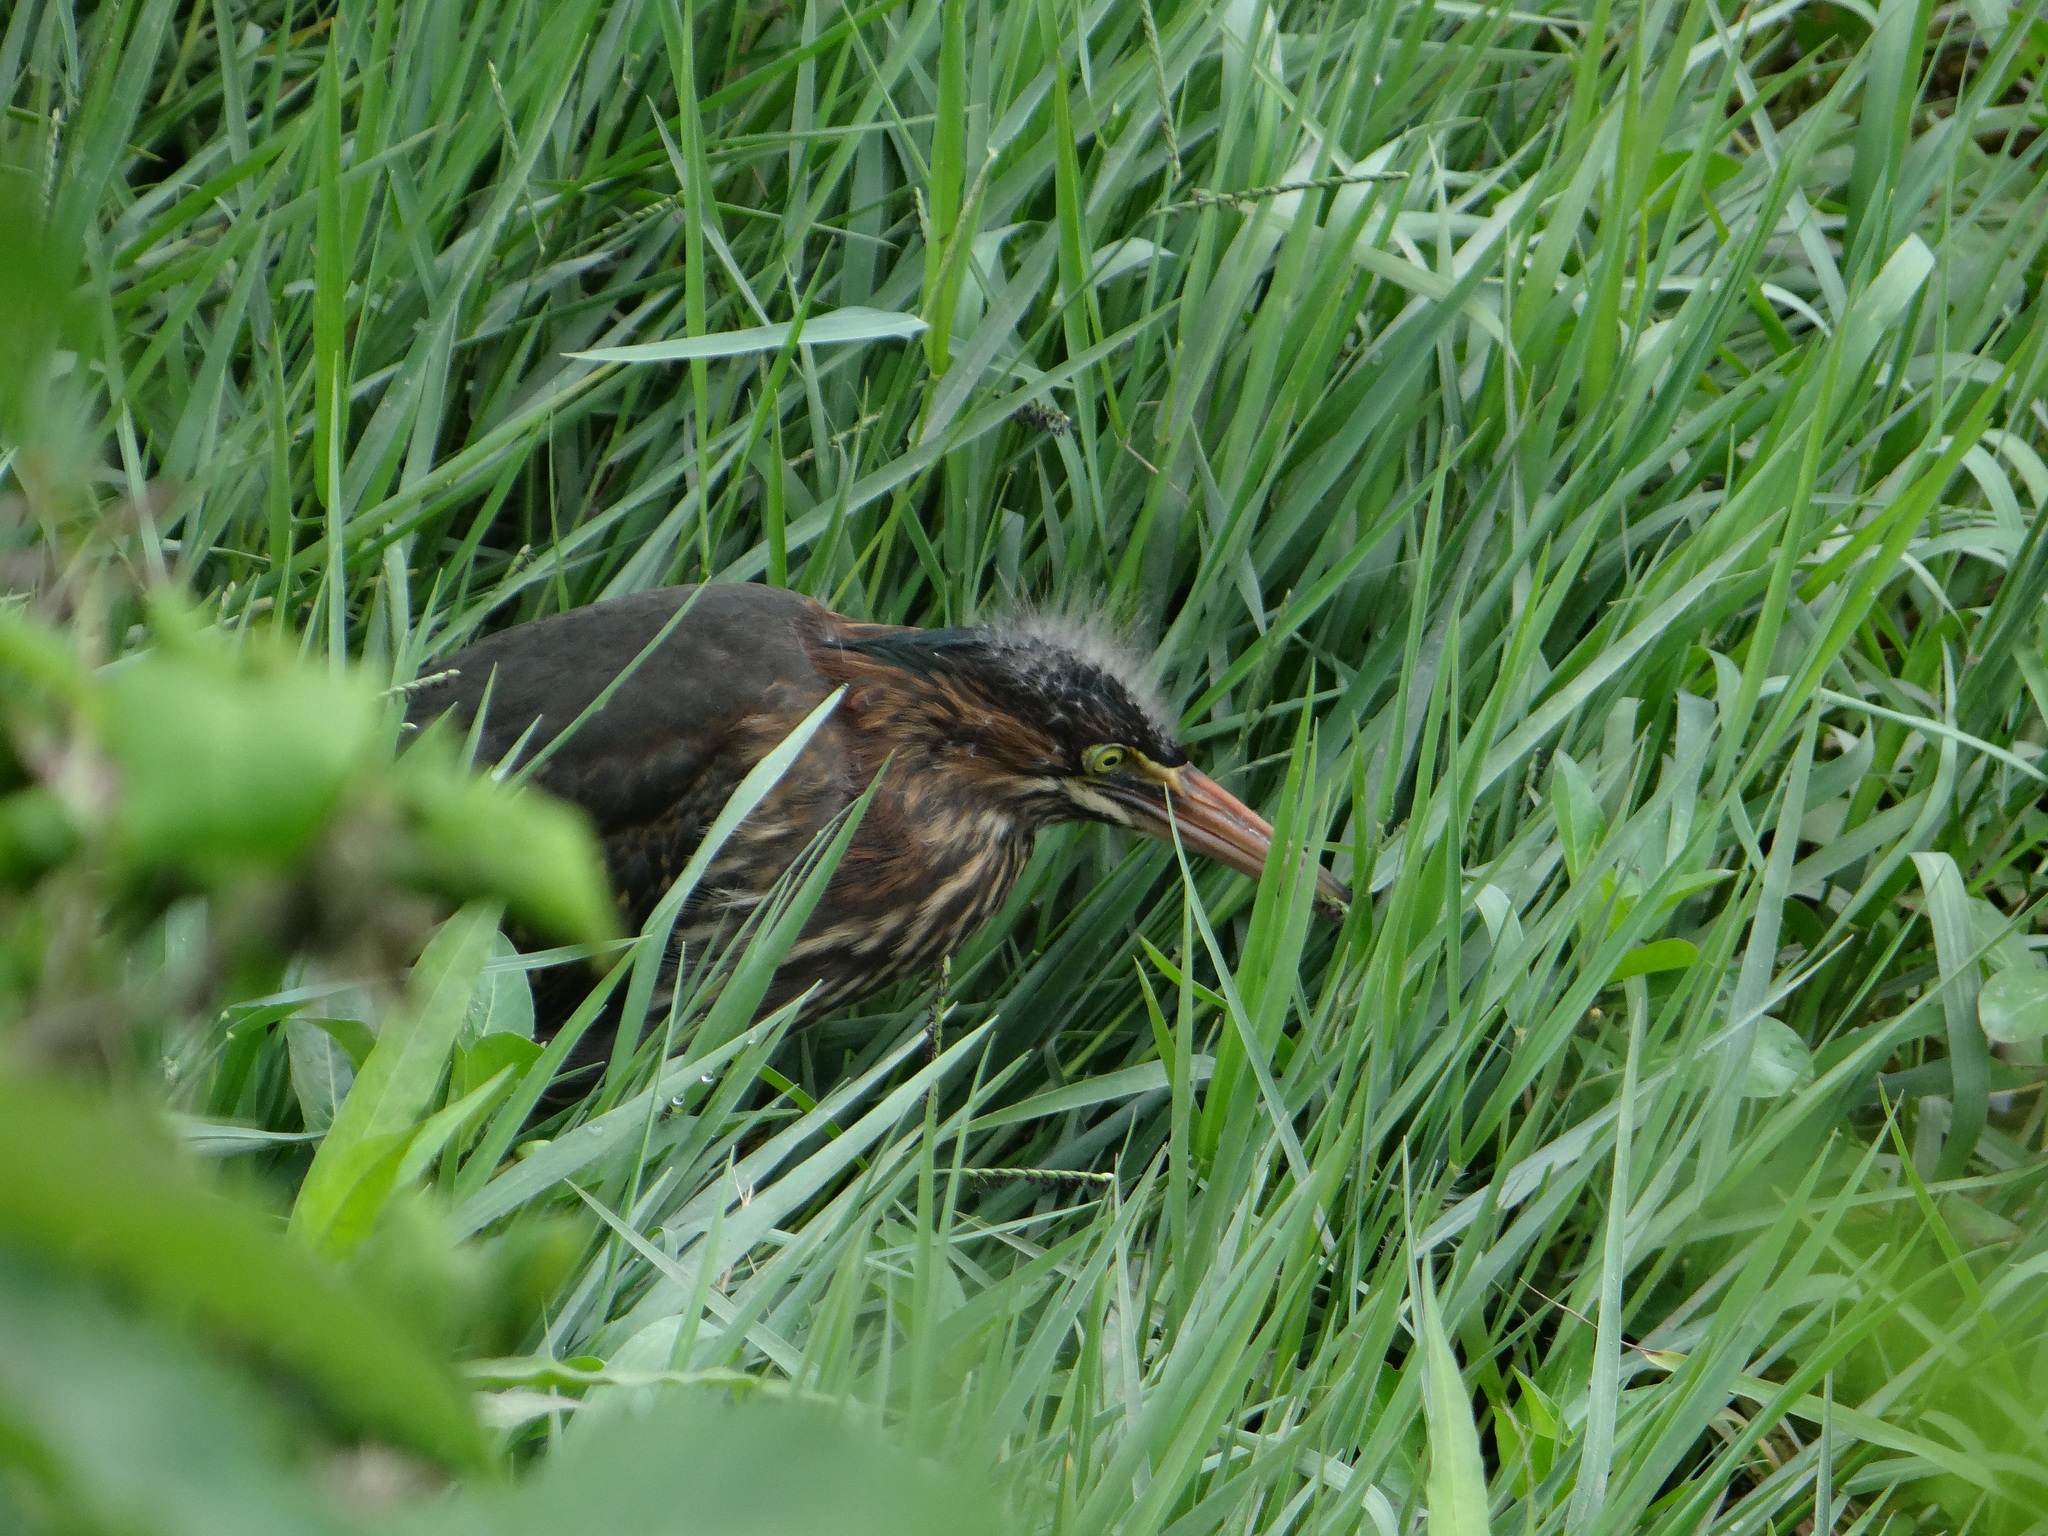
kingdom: Animalia
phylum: Chordata
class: Aves
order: Pelecaniformes
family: Ardeidae
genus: Butorides
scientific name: Butorides virescens
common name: Green heron
